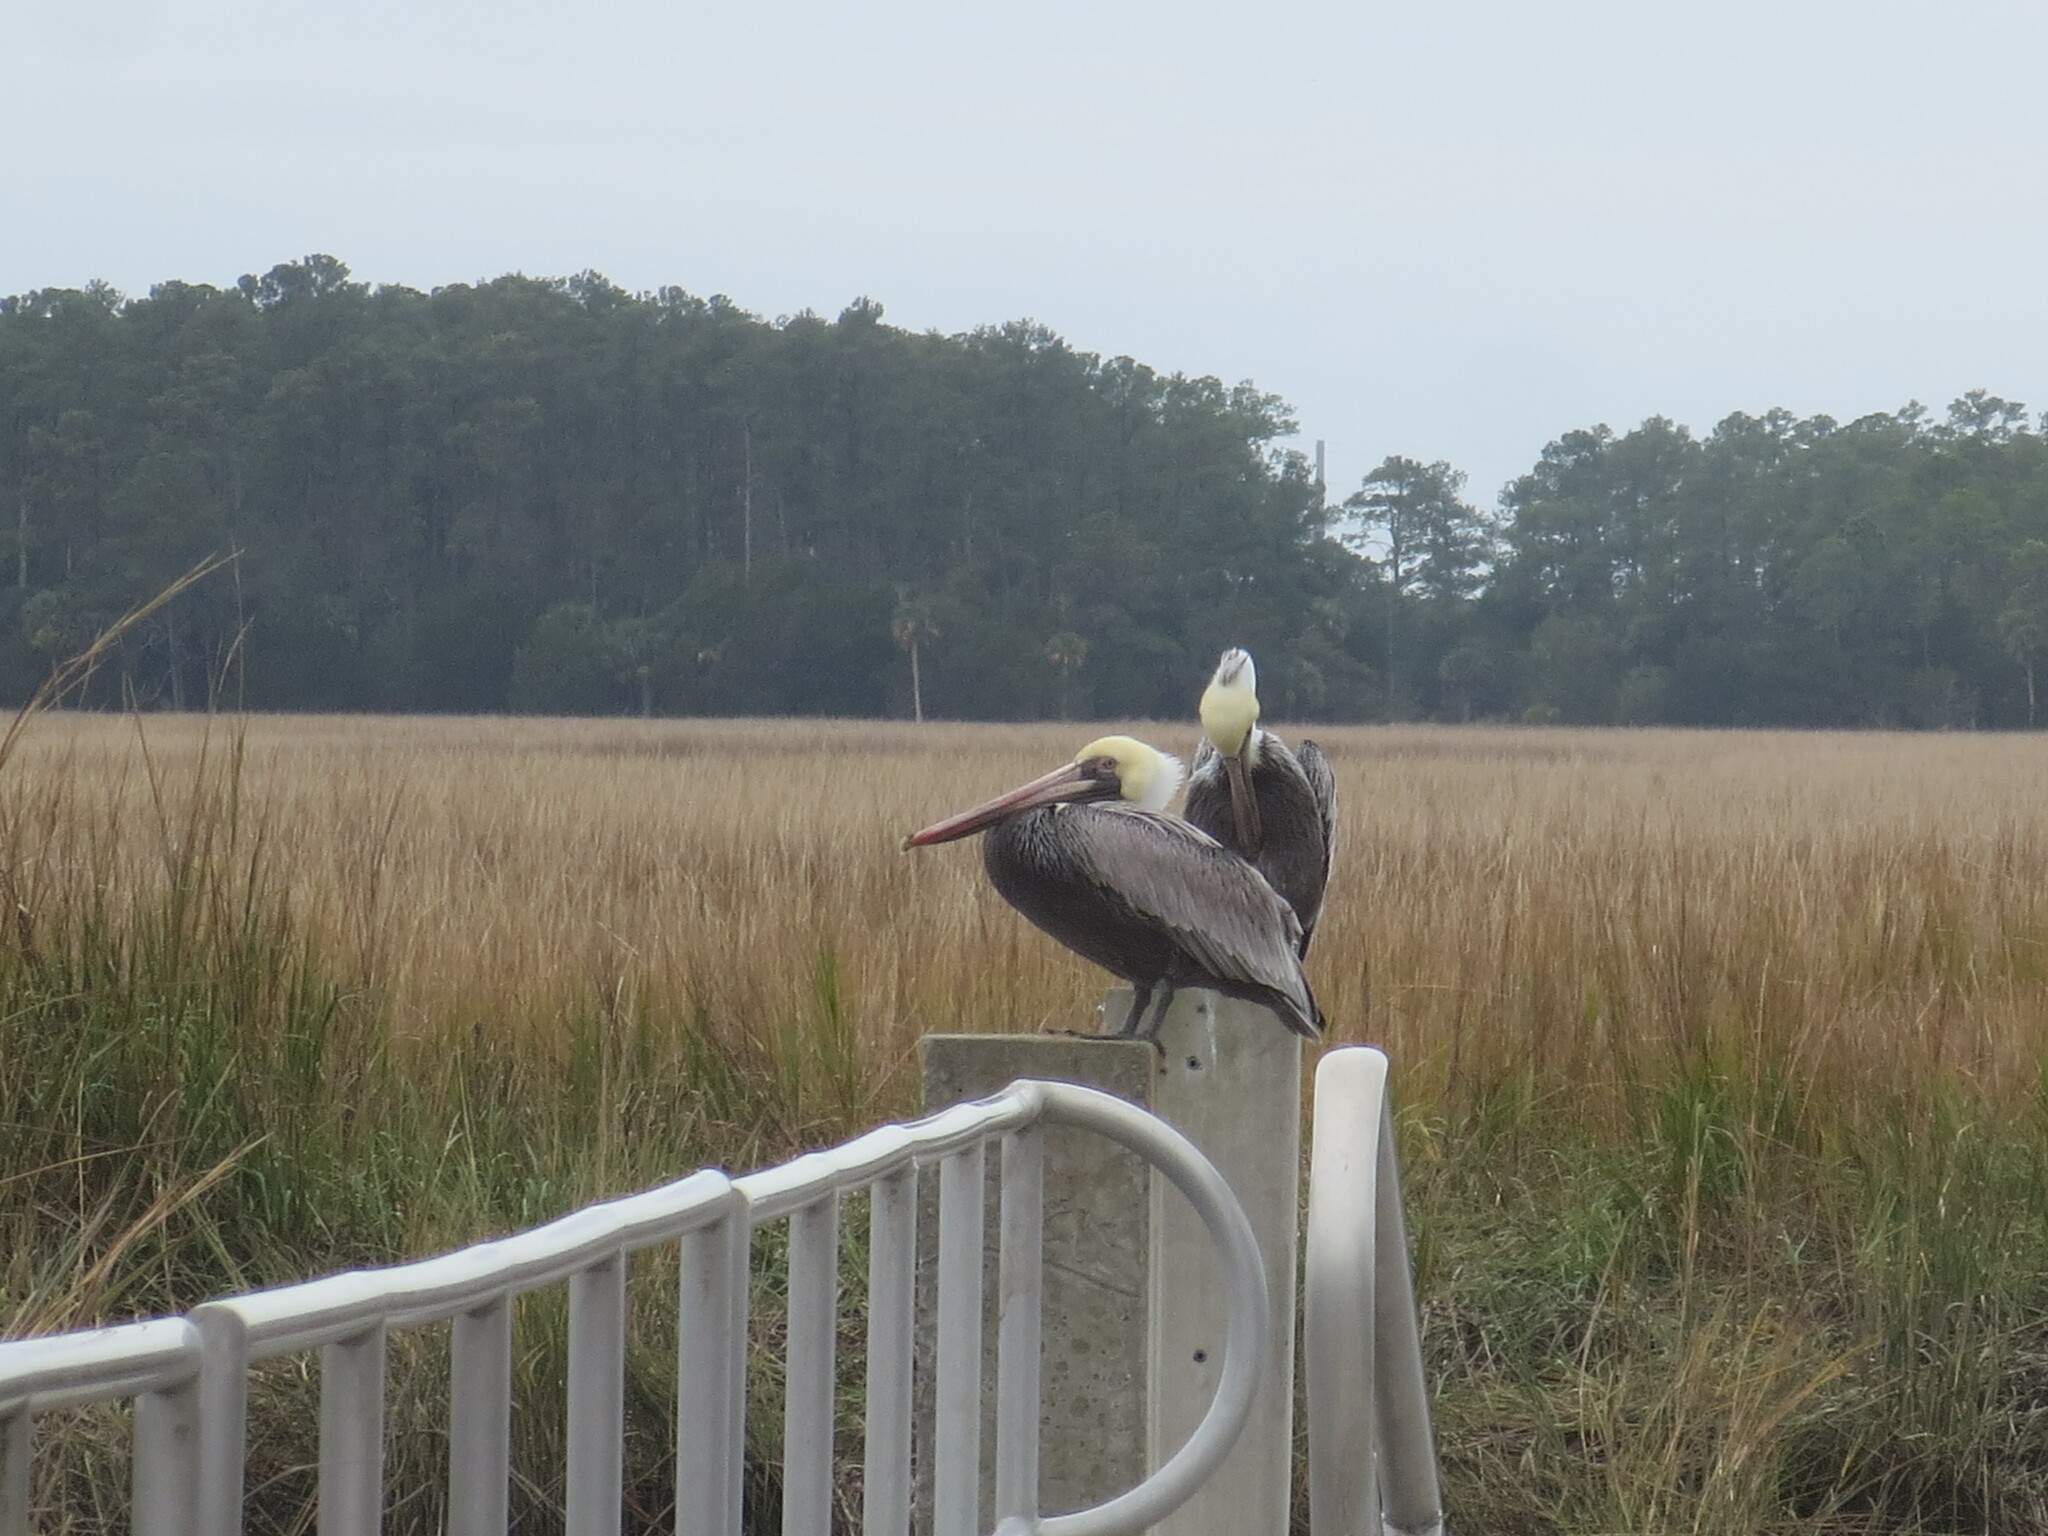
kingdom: Animalia
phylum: Chordata
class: Aves
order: Pelecaniformes
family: Pelecanidae
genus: Pelecanus
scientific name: Pelecanus occidentalis
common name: Brown pelican
